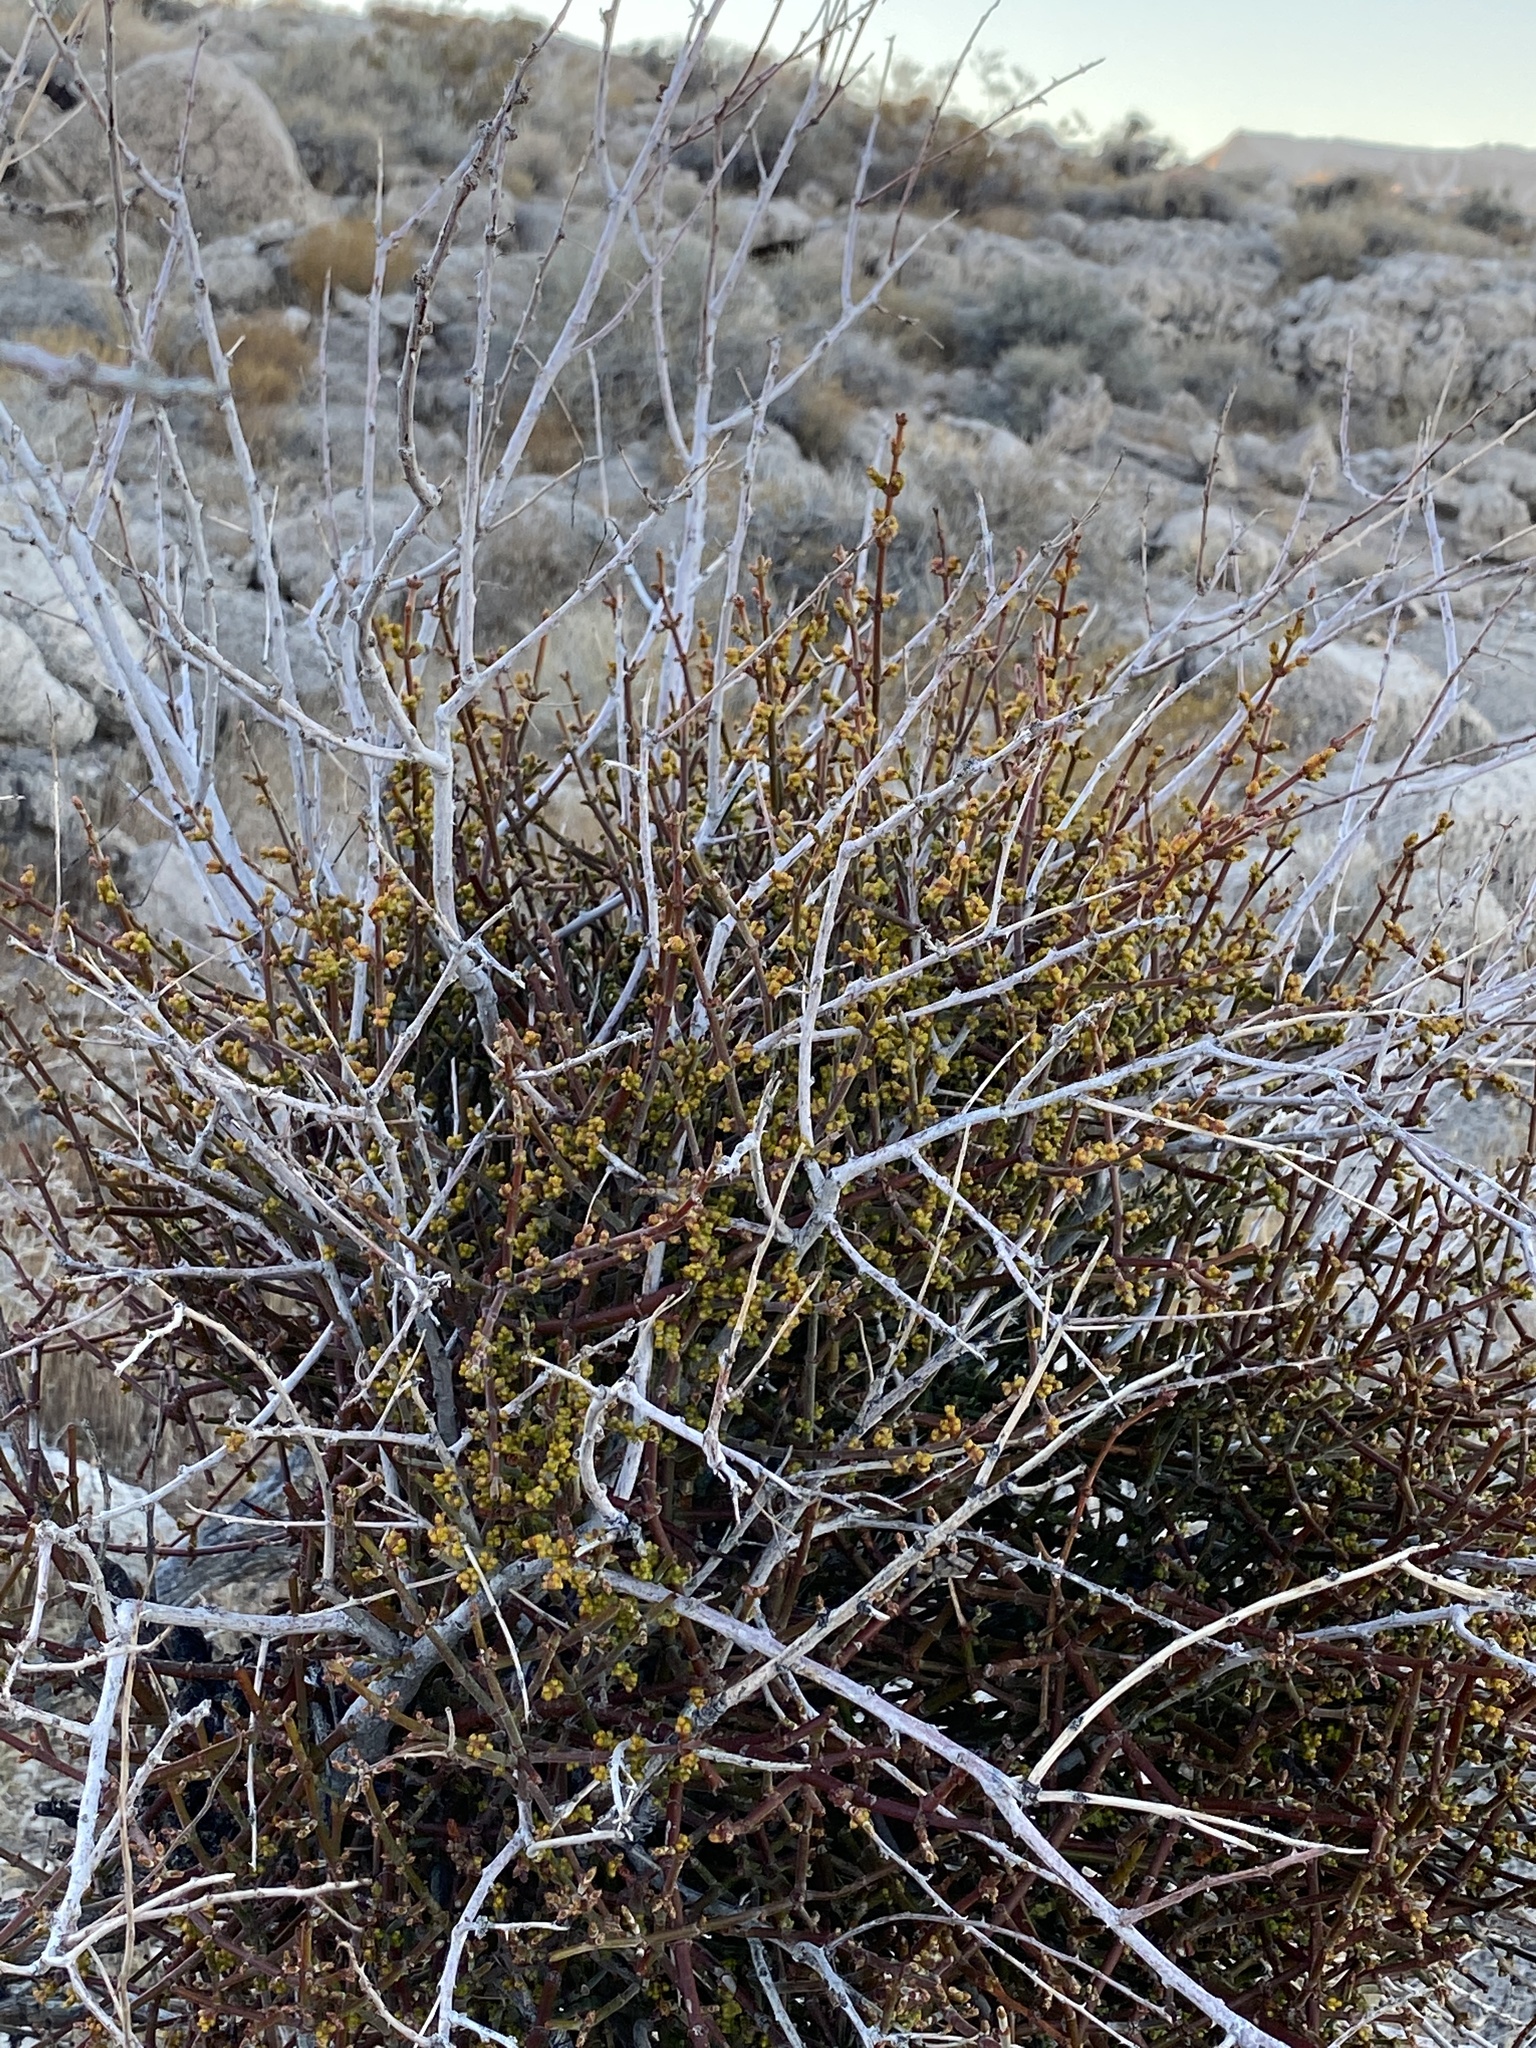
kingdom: Plantae
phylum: Tracheophyta
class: Magnoliopsida
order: Santalales
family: Viscaceae
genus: Phoradendron
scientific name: Phoradendron californicum
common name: Acacia mistletoe
